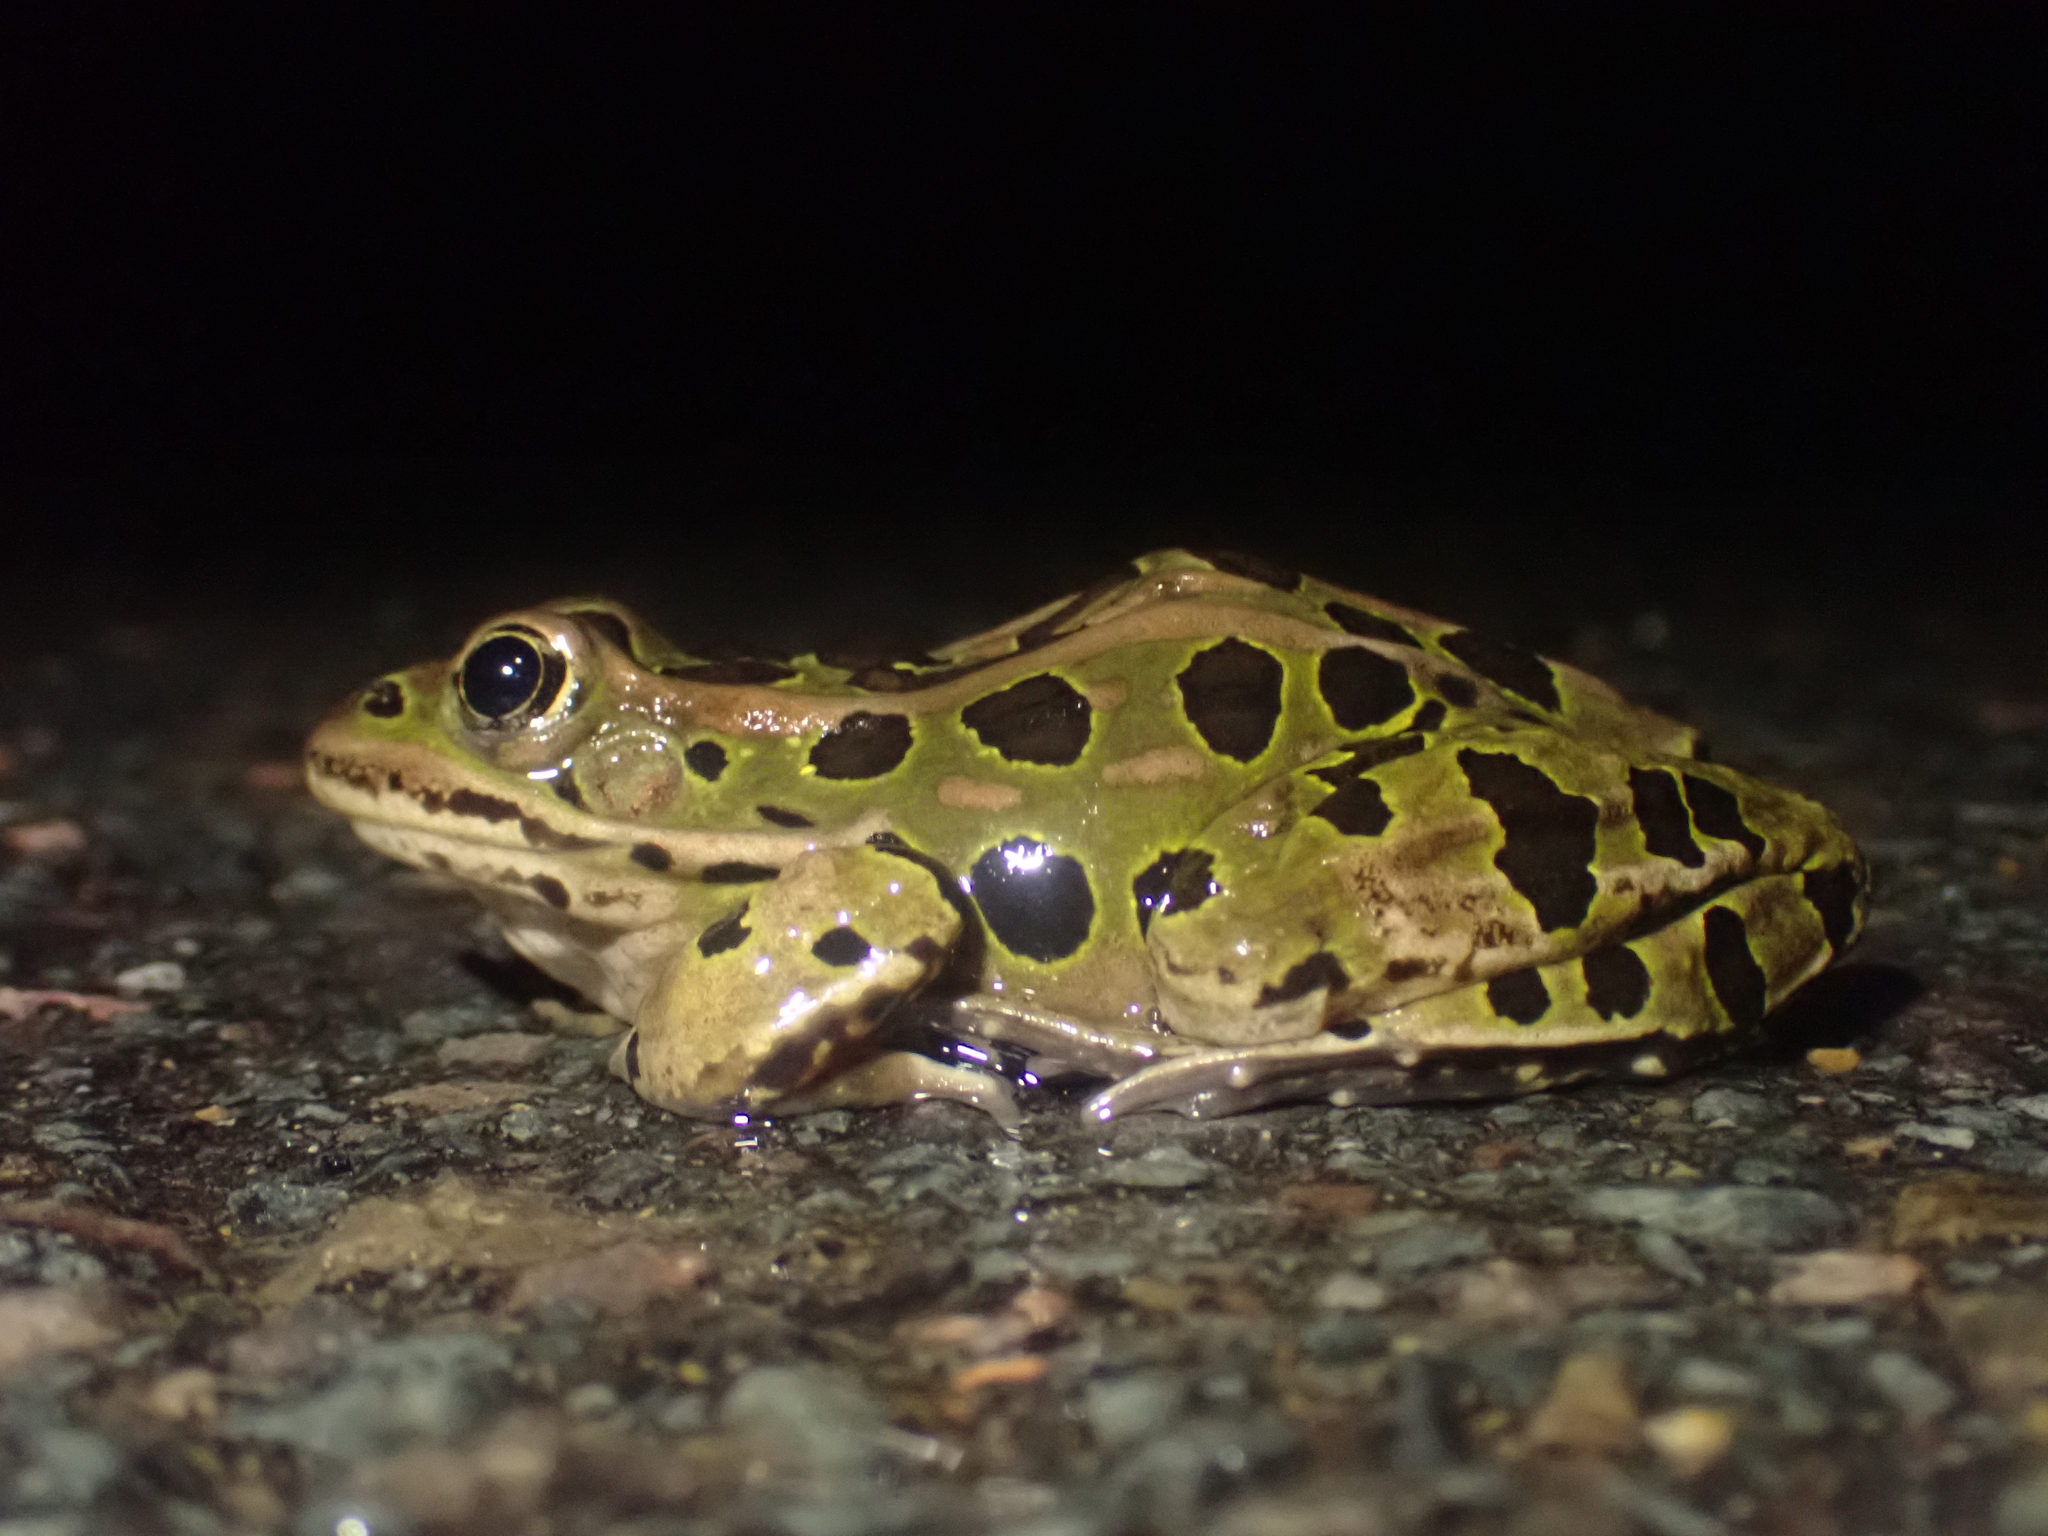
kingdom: Animalia
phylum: Chordata
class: Amphibia
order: Anura
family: Ranidae
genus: Lithobates
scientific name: Lithobates pipiens
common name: Northern leopard frog
